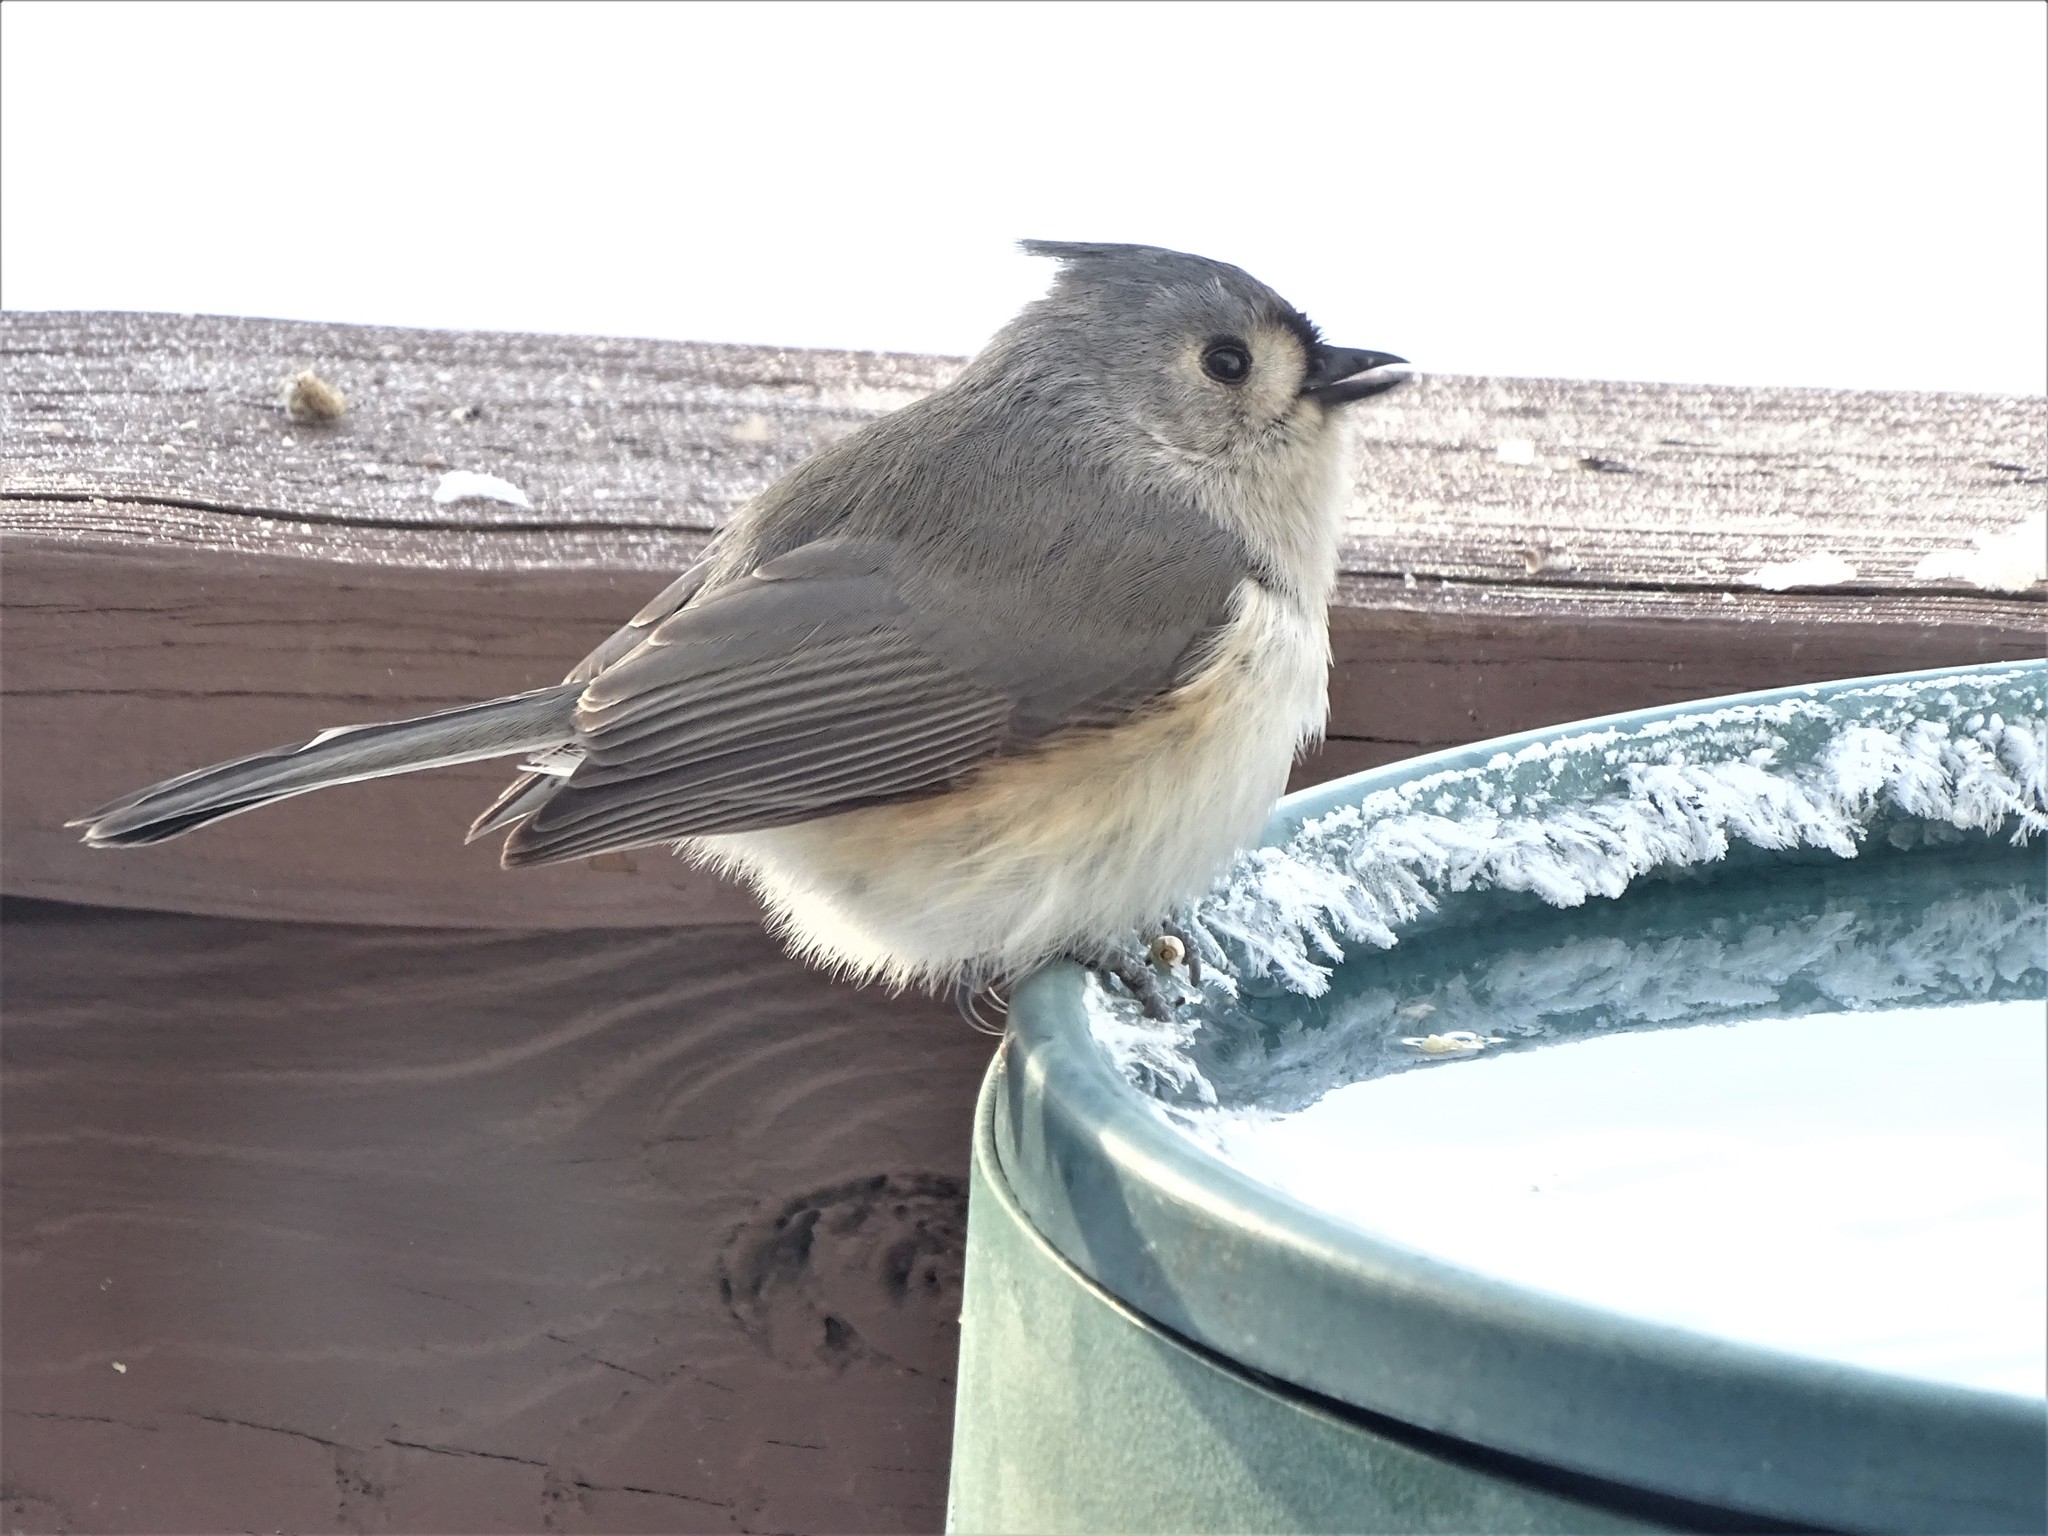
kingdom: Animalia
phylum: Chordata
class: Aves
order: Passeriformes
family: Paridae
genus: Baeolophus
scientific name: Baeolophus bicolor
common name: Tufted titmouse
